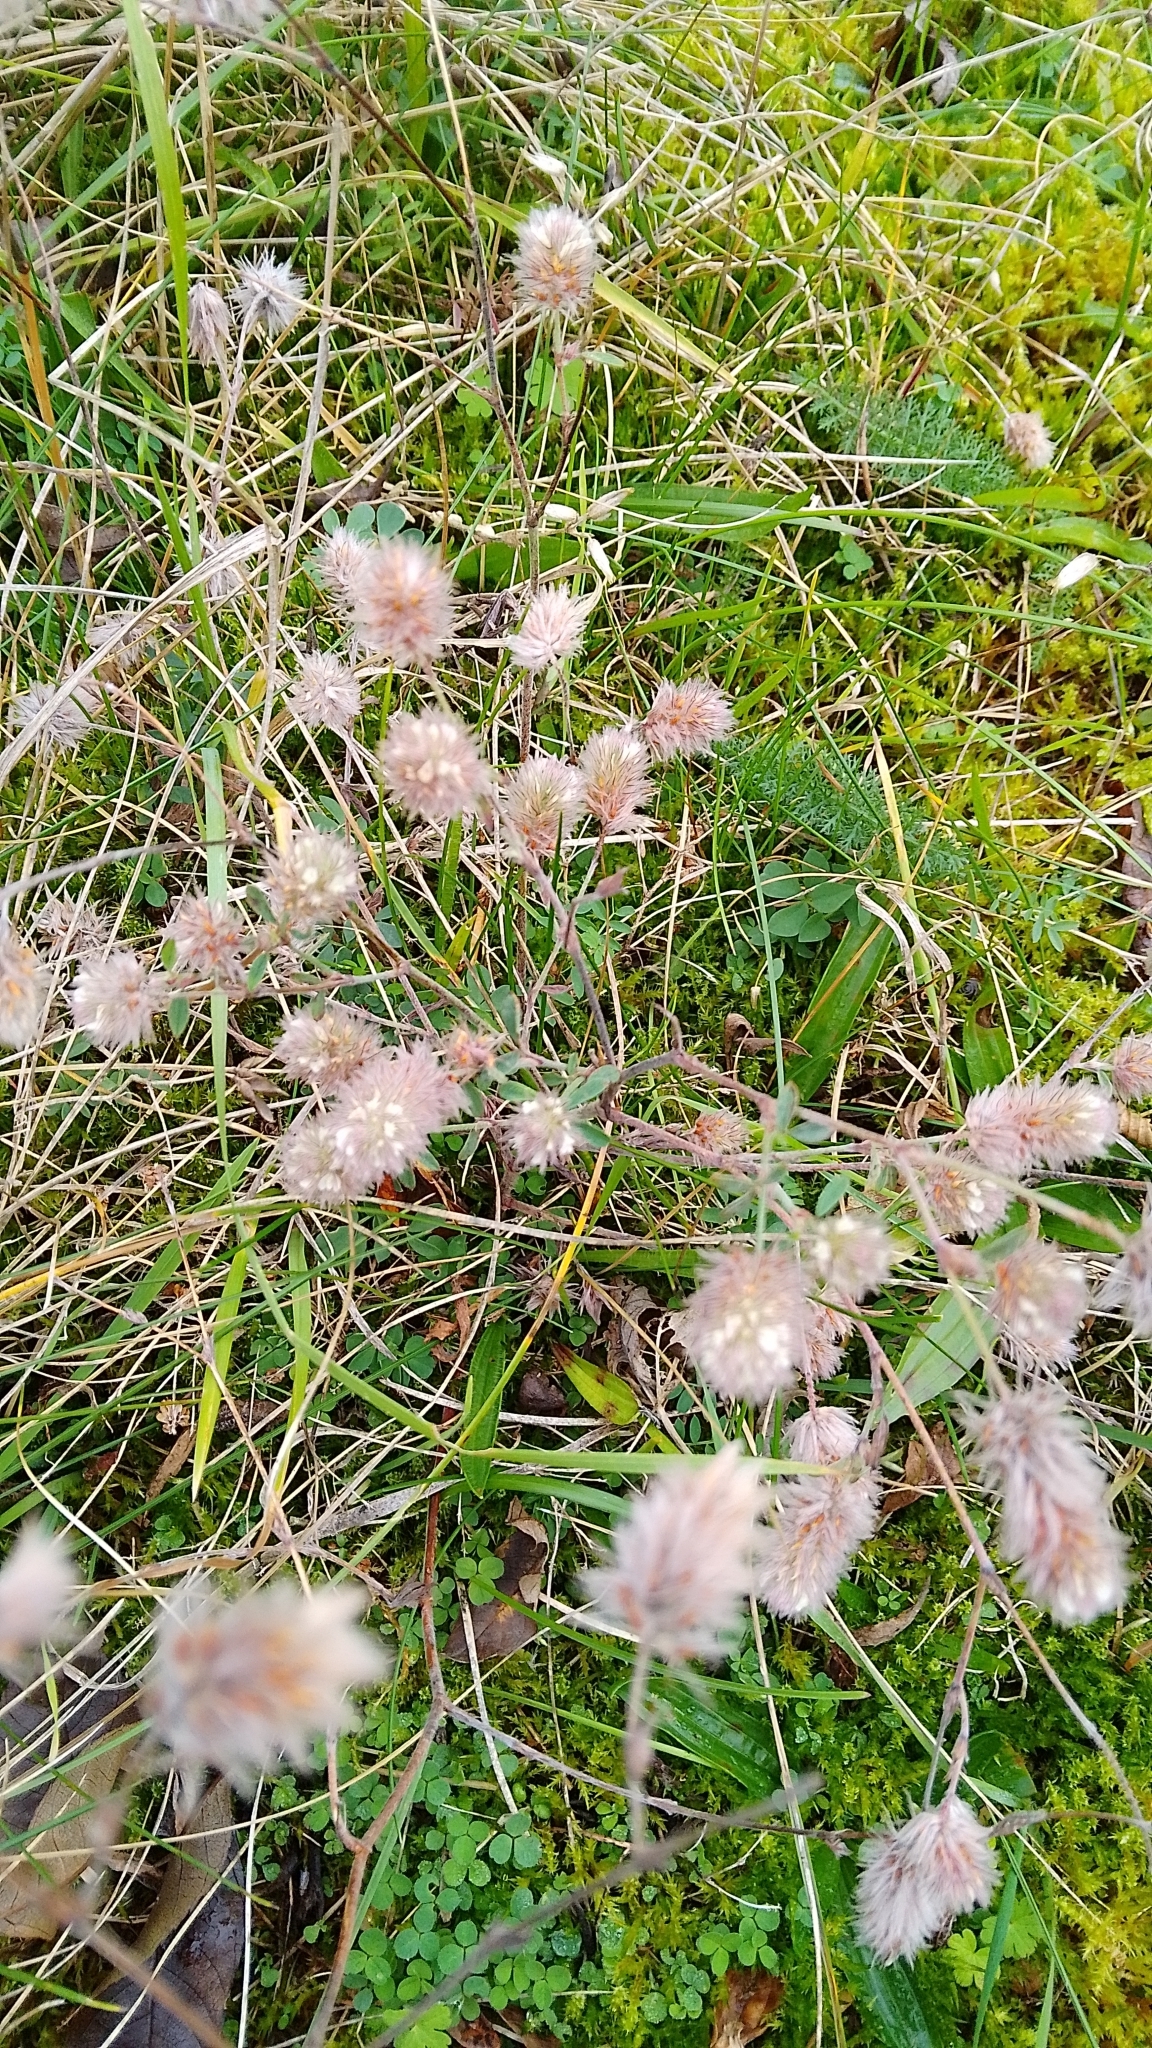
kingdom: Plantae
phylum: Tracheophyta
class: Magnoliopsida
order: Fabales
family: Fabaceae
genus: Trifolium
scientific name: Trifolium arvense
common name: Hare's-foot clover
